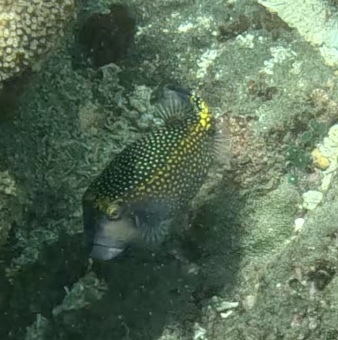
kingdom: Animalia
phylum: Chordata
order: Tetraodontiformes
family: Ostraciidae
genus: Ostracion
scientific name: Ostracion meleagris
